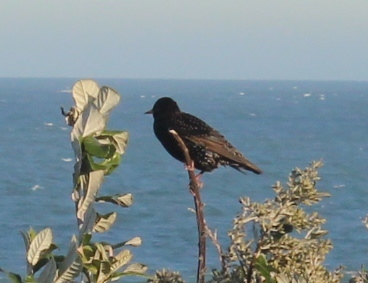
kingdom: Animalia
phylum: Chordata
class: Aves
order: Passeriformes
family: Sturnidae
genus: Sturnus
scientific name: Sturnus vulgaris
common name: Common starling
